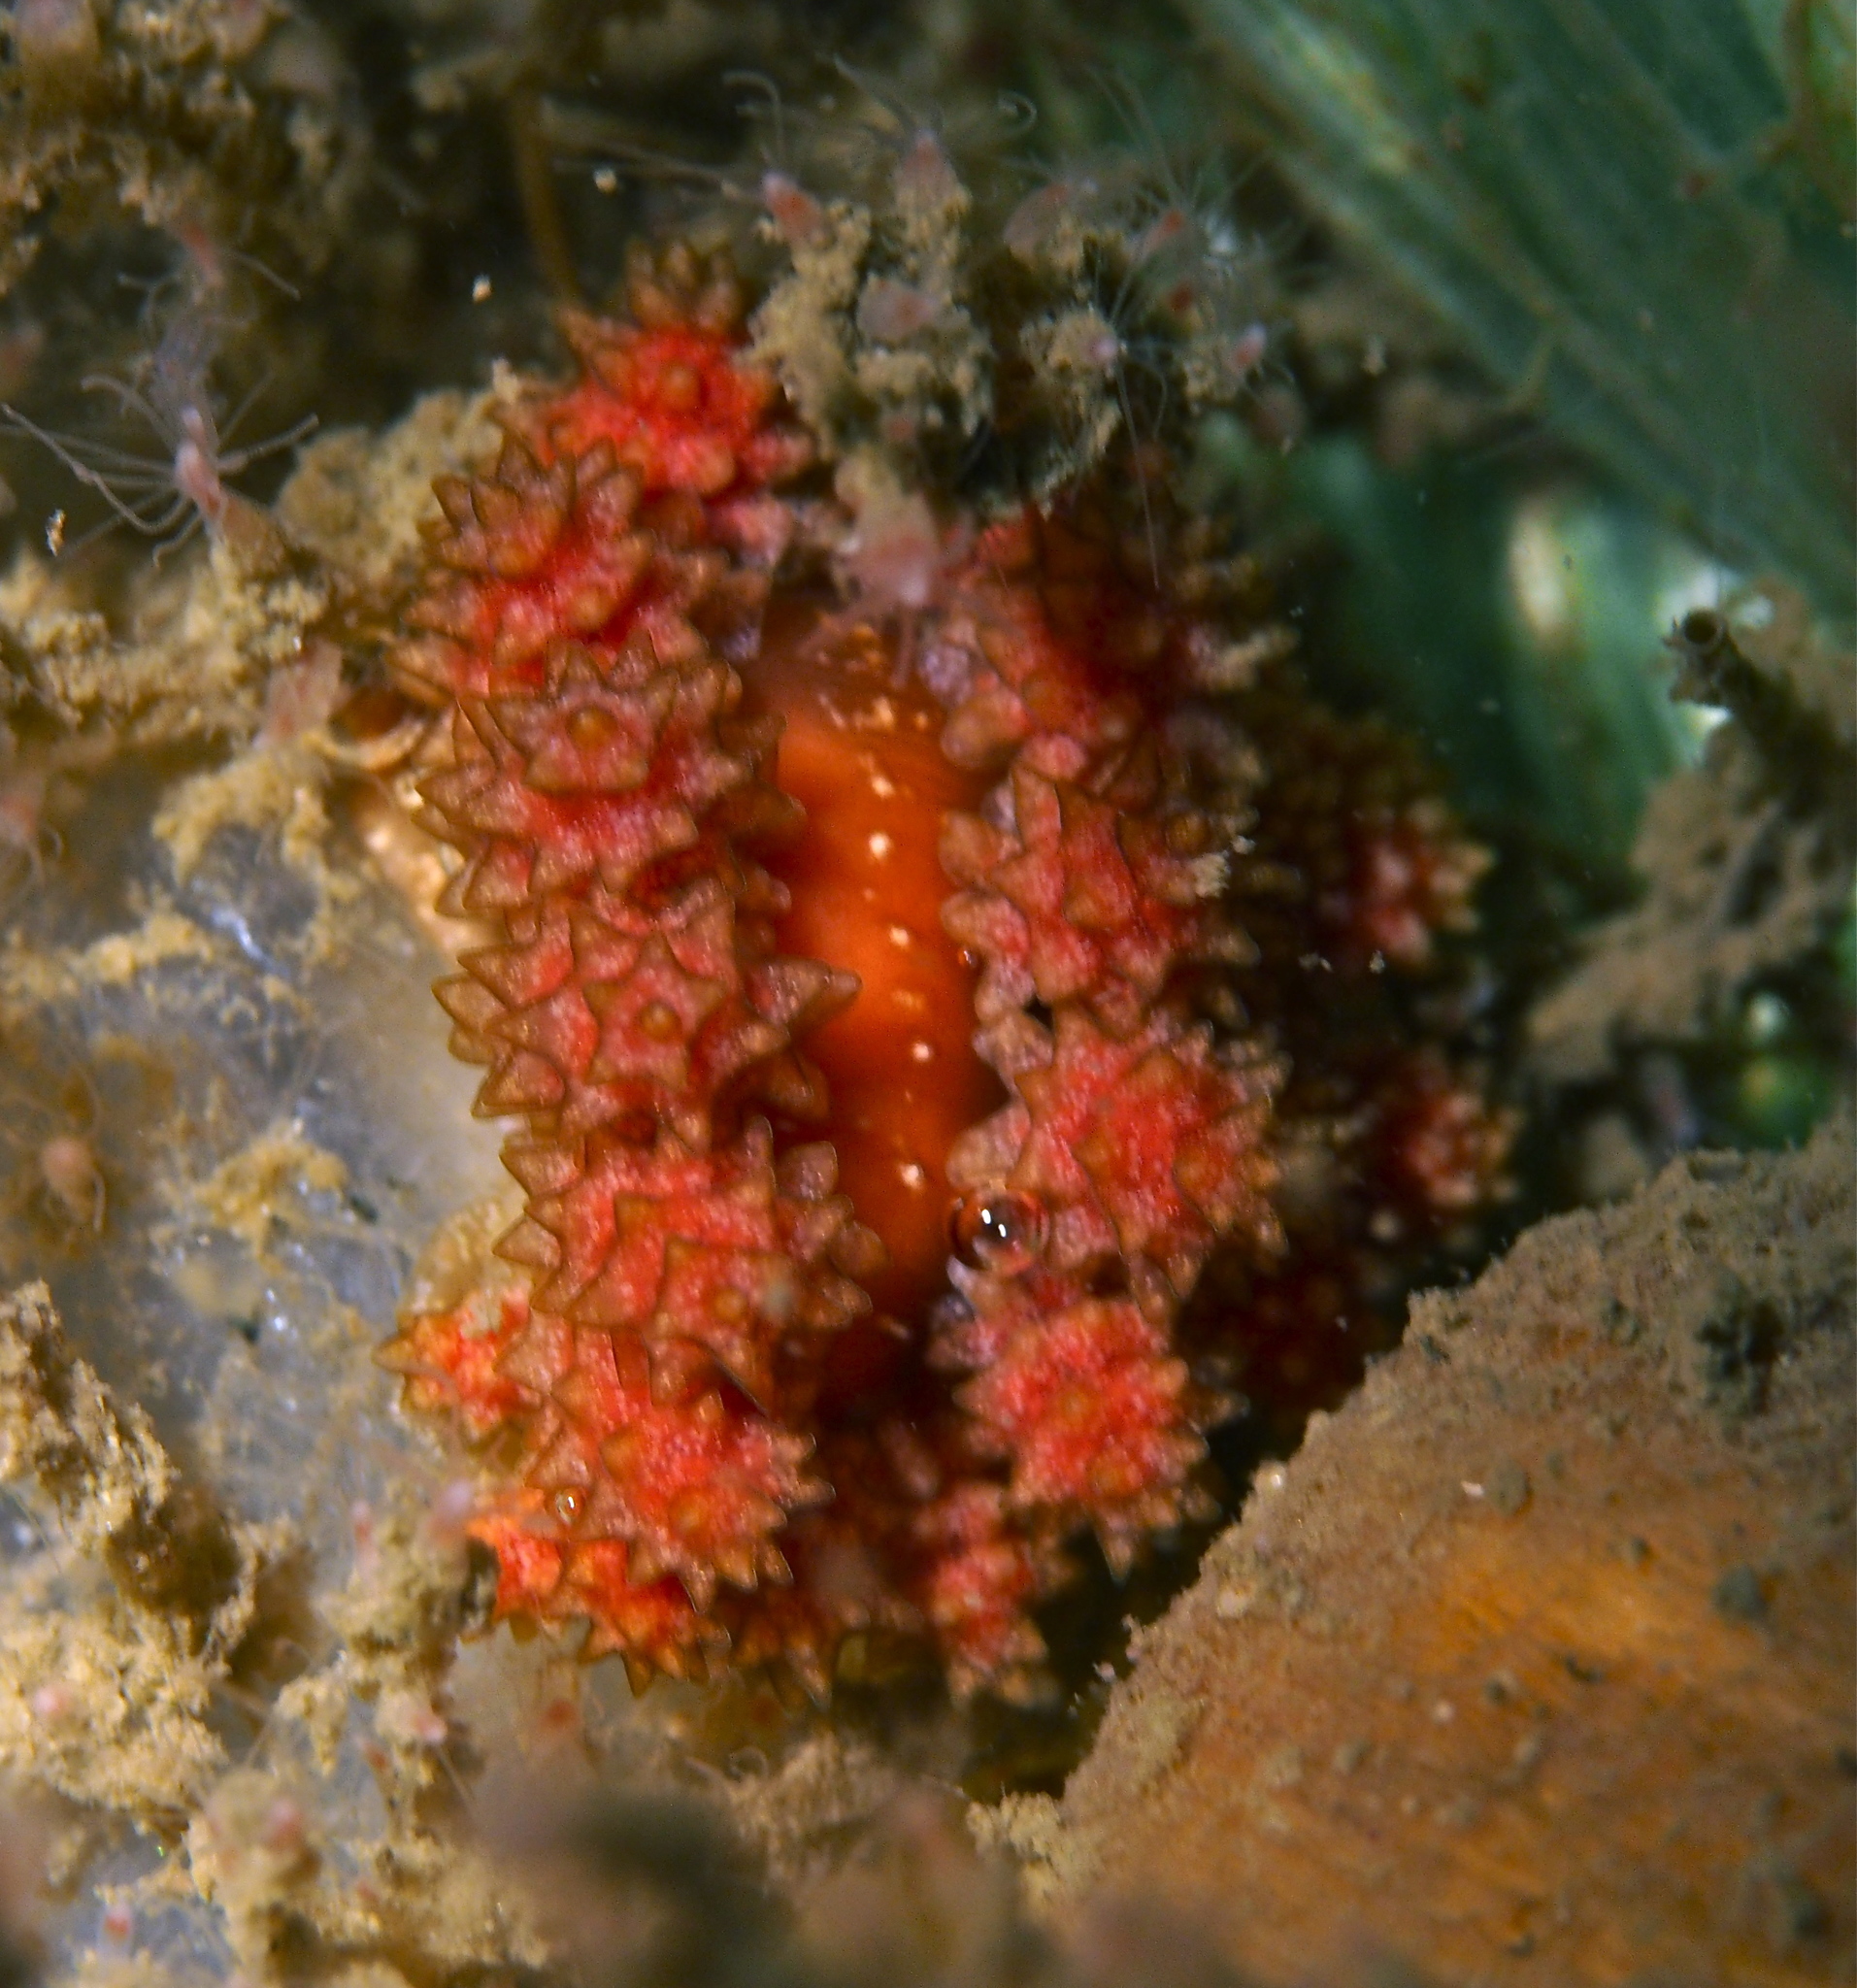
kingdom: Animalia
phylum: Mollusca
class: Gastropoda
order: Nudibranchia
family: Dotidae
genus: Doto
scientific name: Doto fragilis
